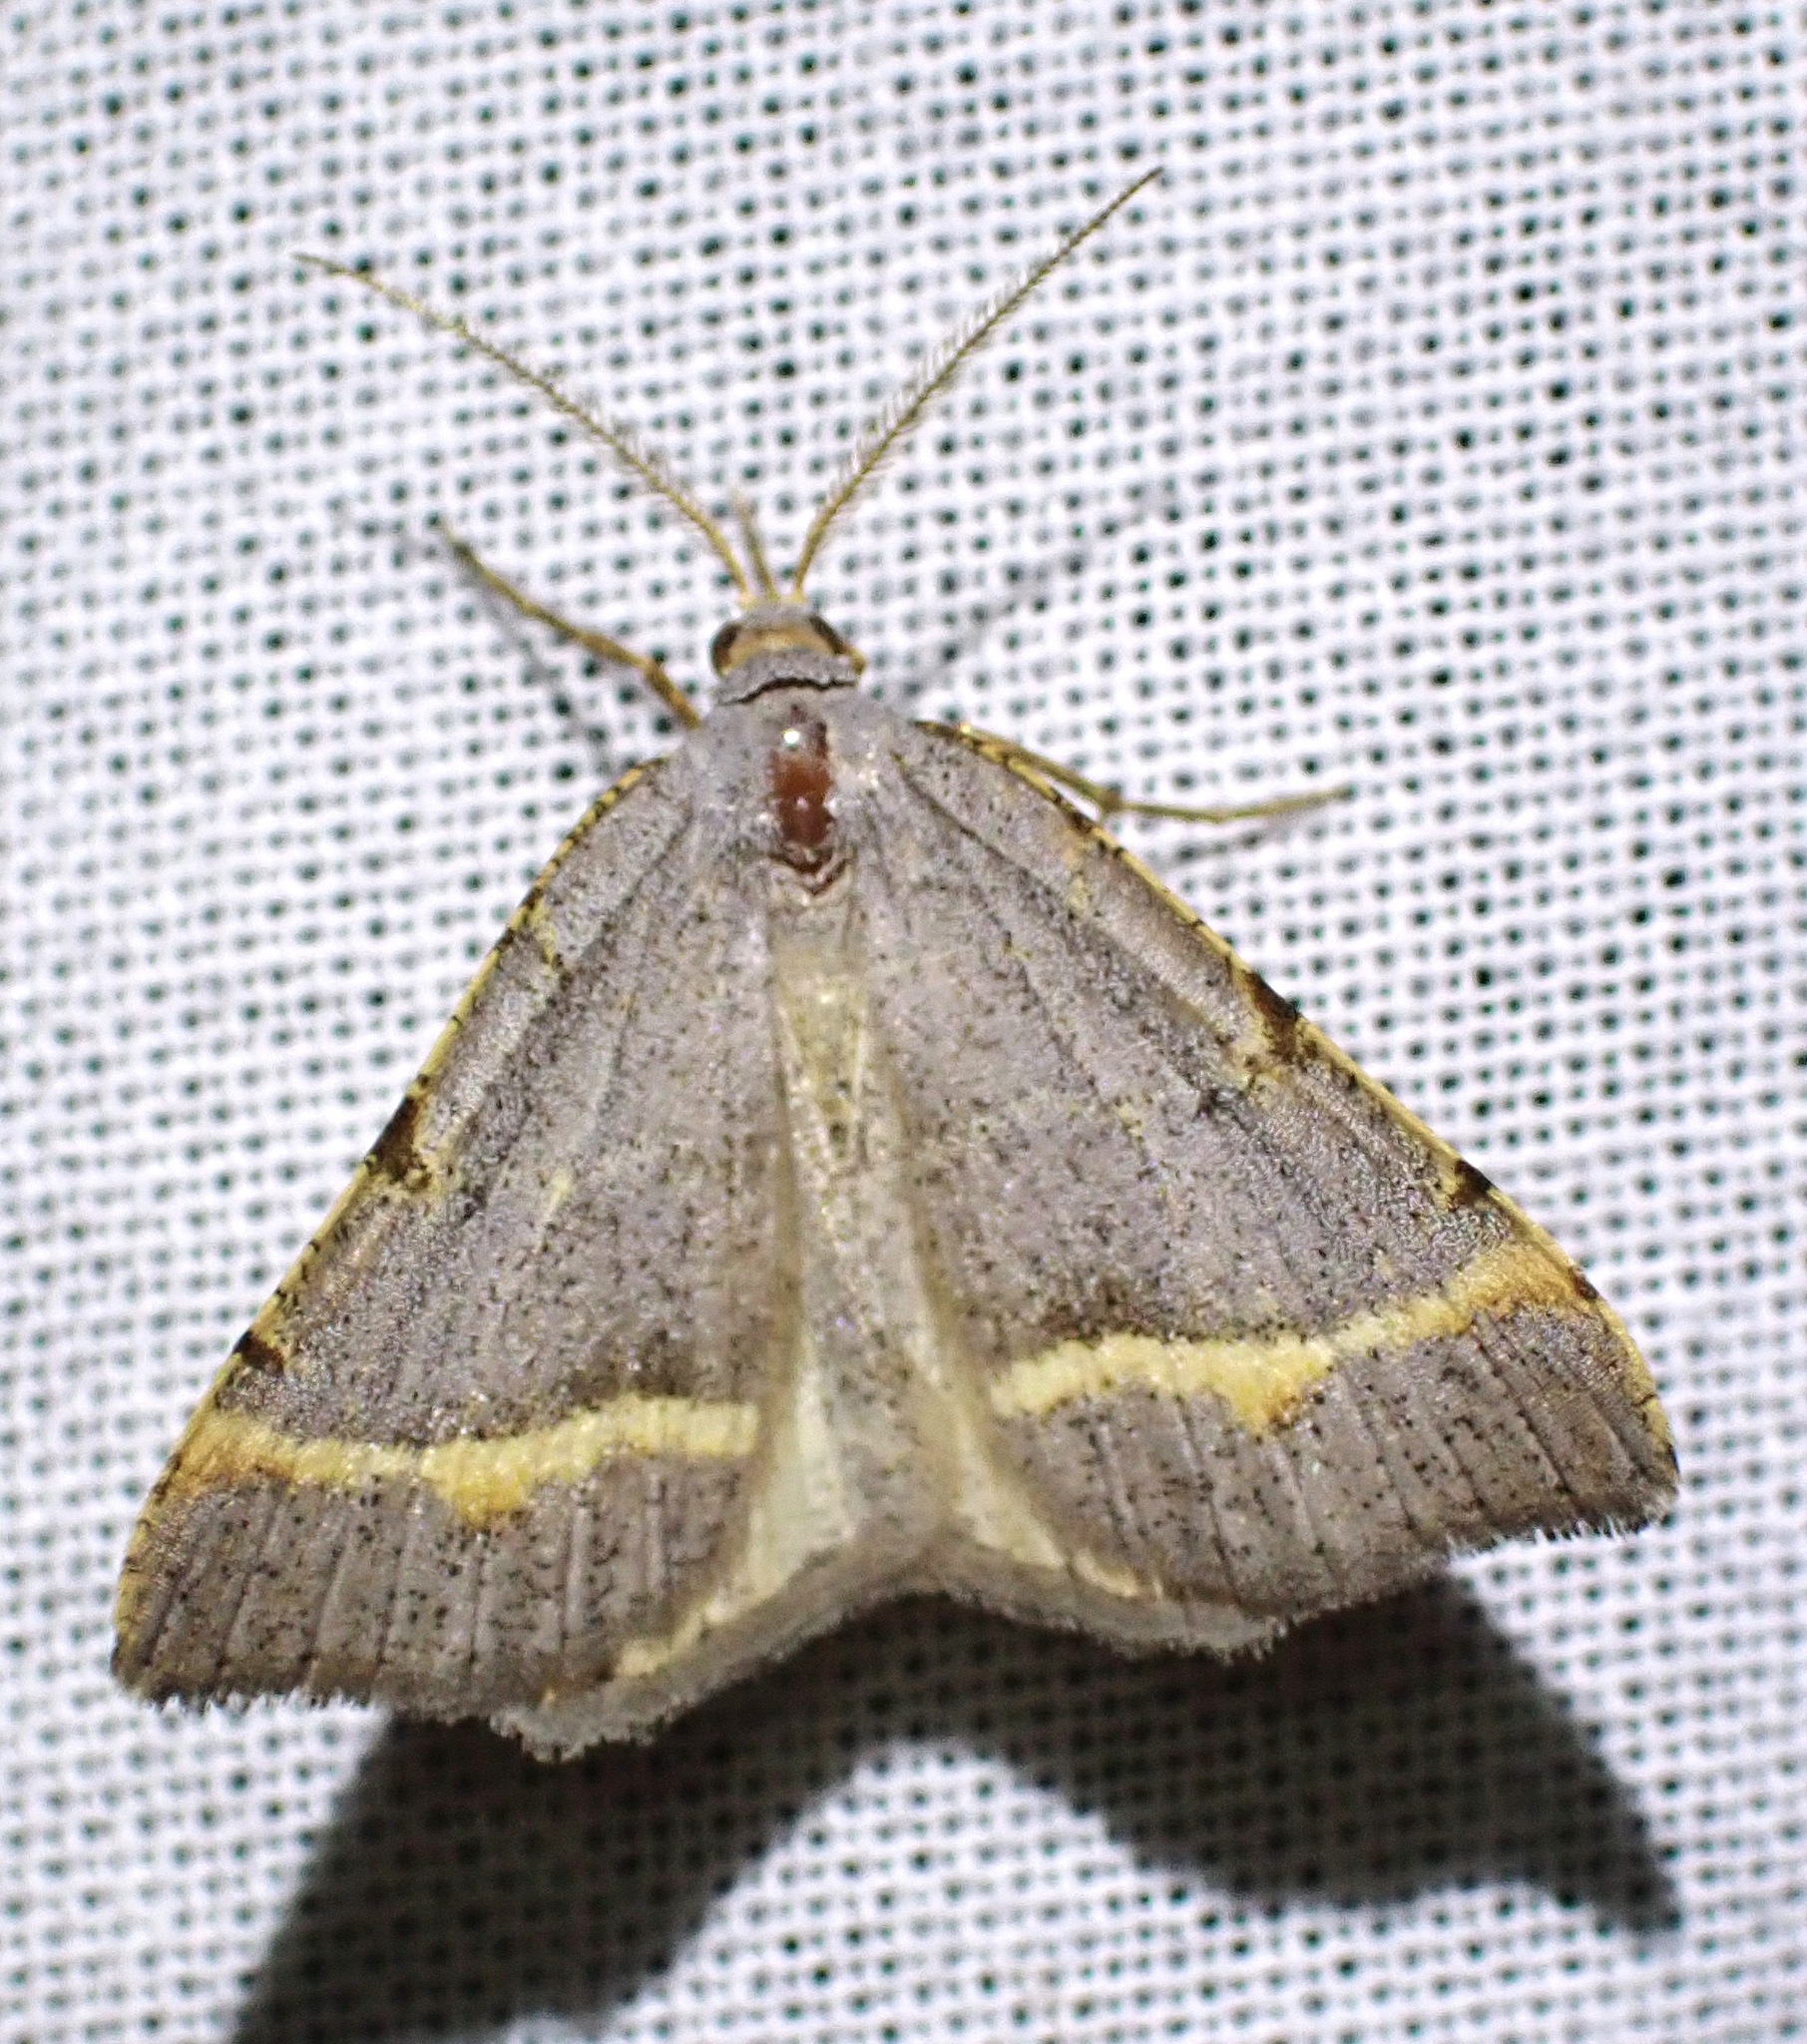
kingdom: Animalia
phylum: Arthropoda
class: Insecta
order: Lepidoptera
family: Geometridae
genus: Macaria
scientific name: Macaria guenearia
